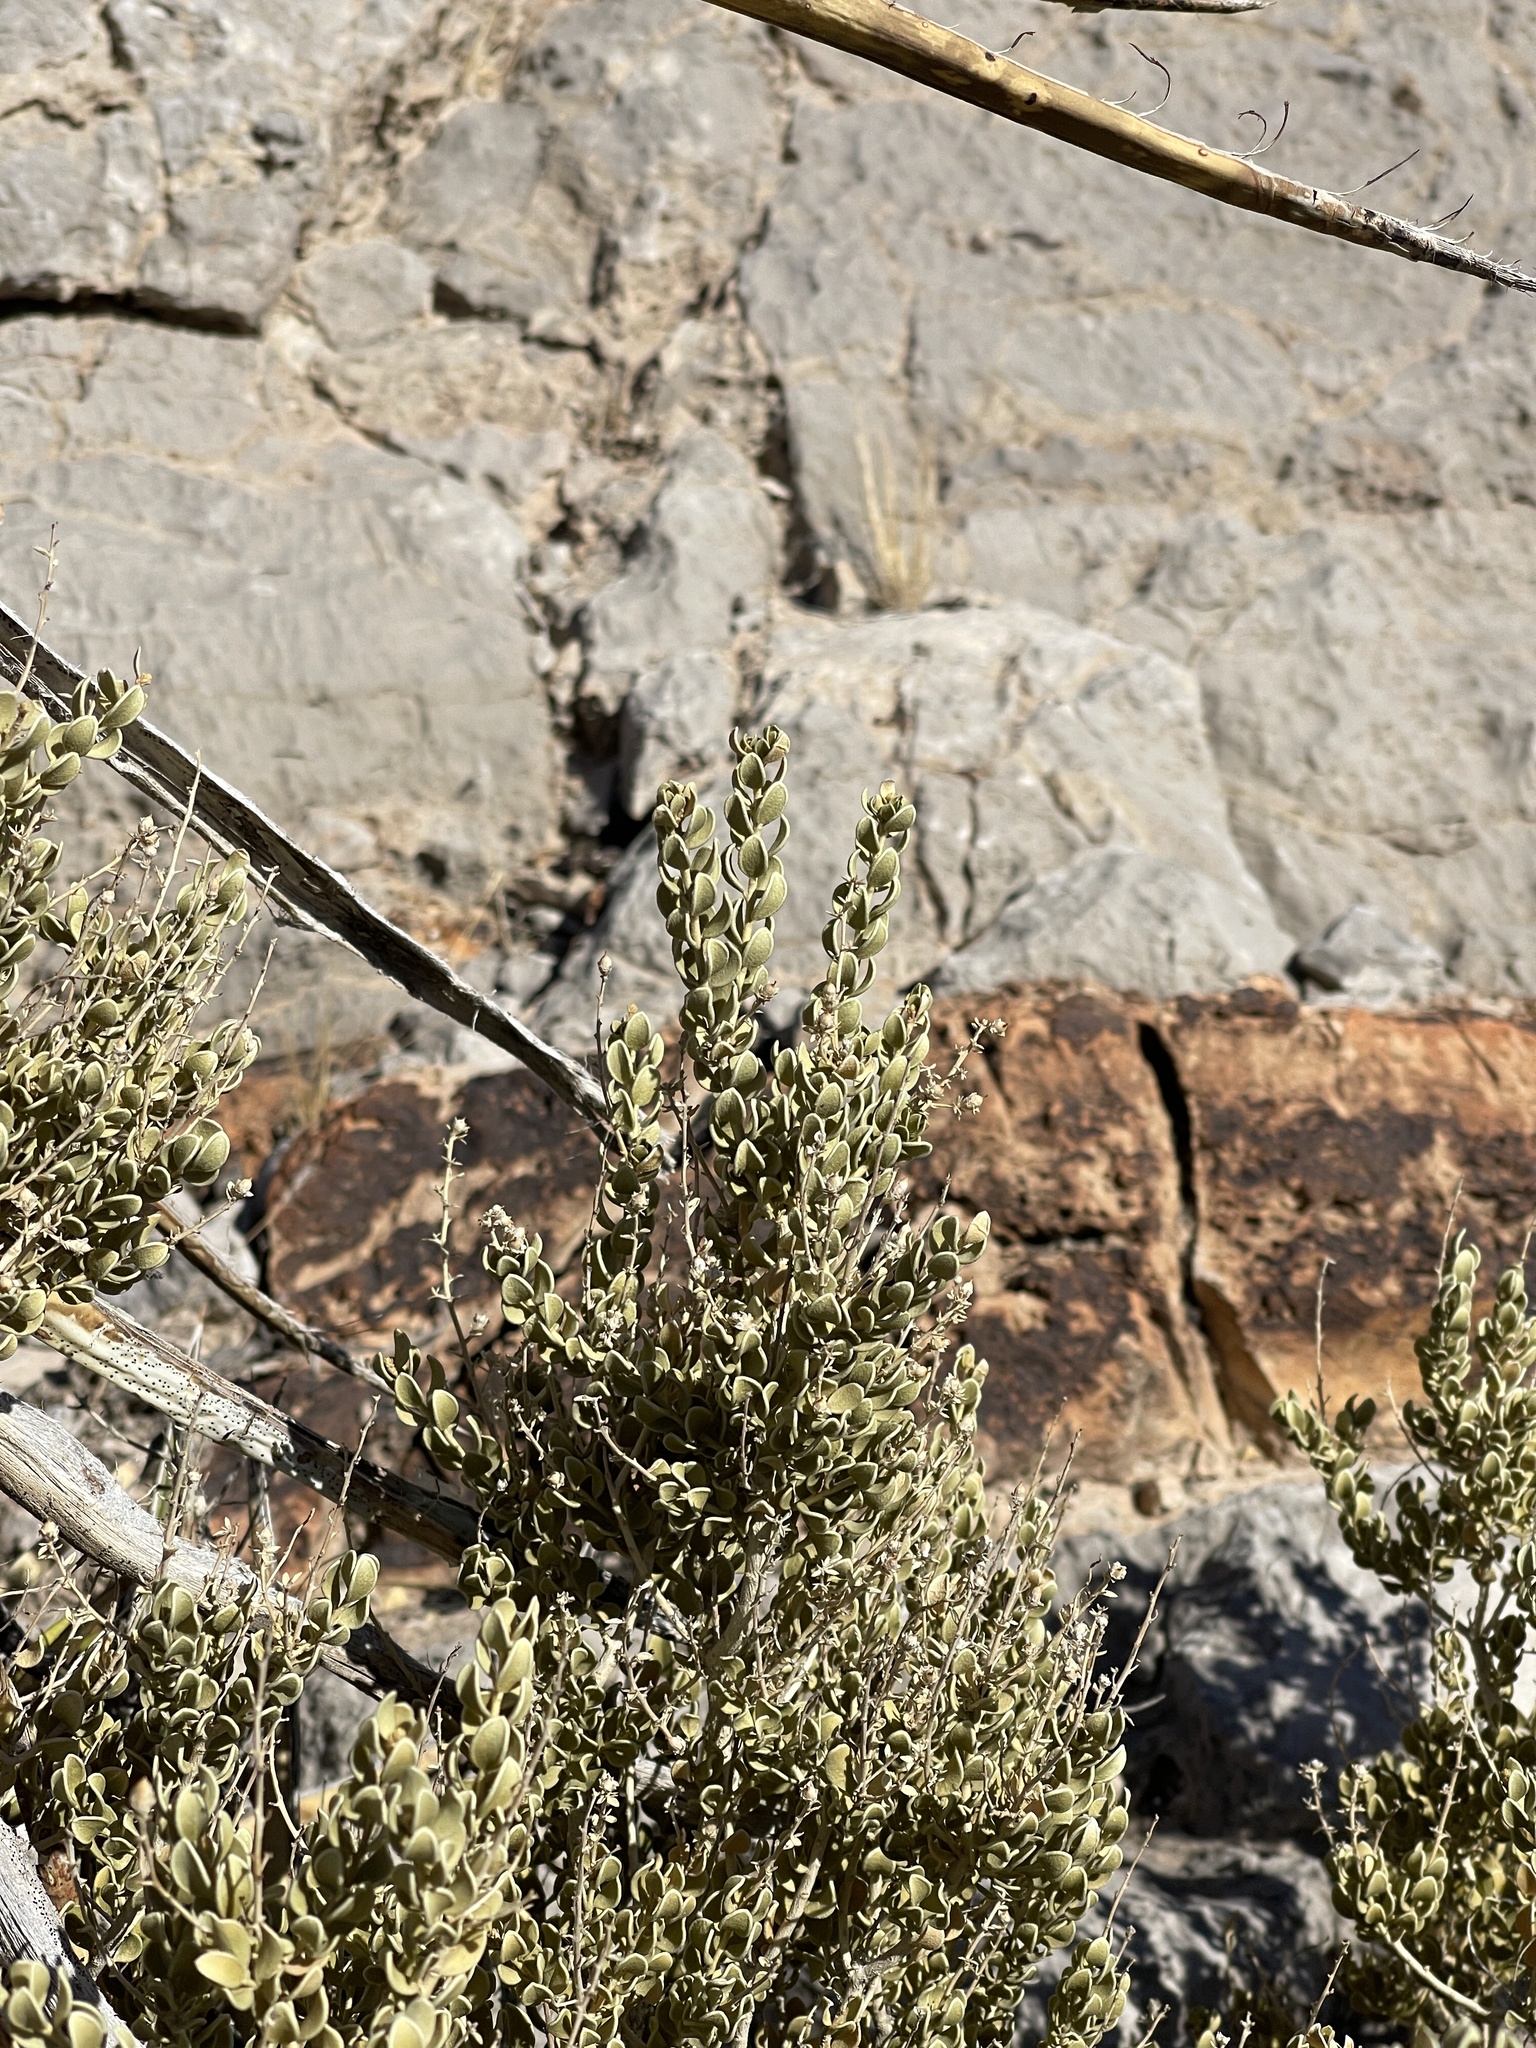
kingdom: Plantae
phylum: Tracheophyta
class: Magnoliopsida
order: Celastrales
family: Celastraceae
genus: Mortonia
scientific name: Mortonia utahensis
